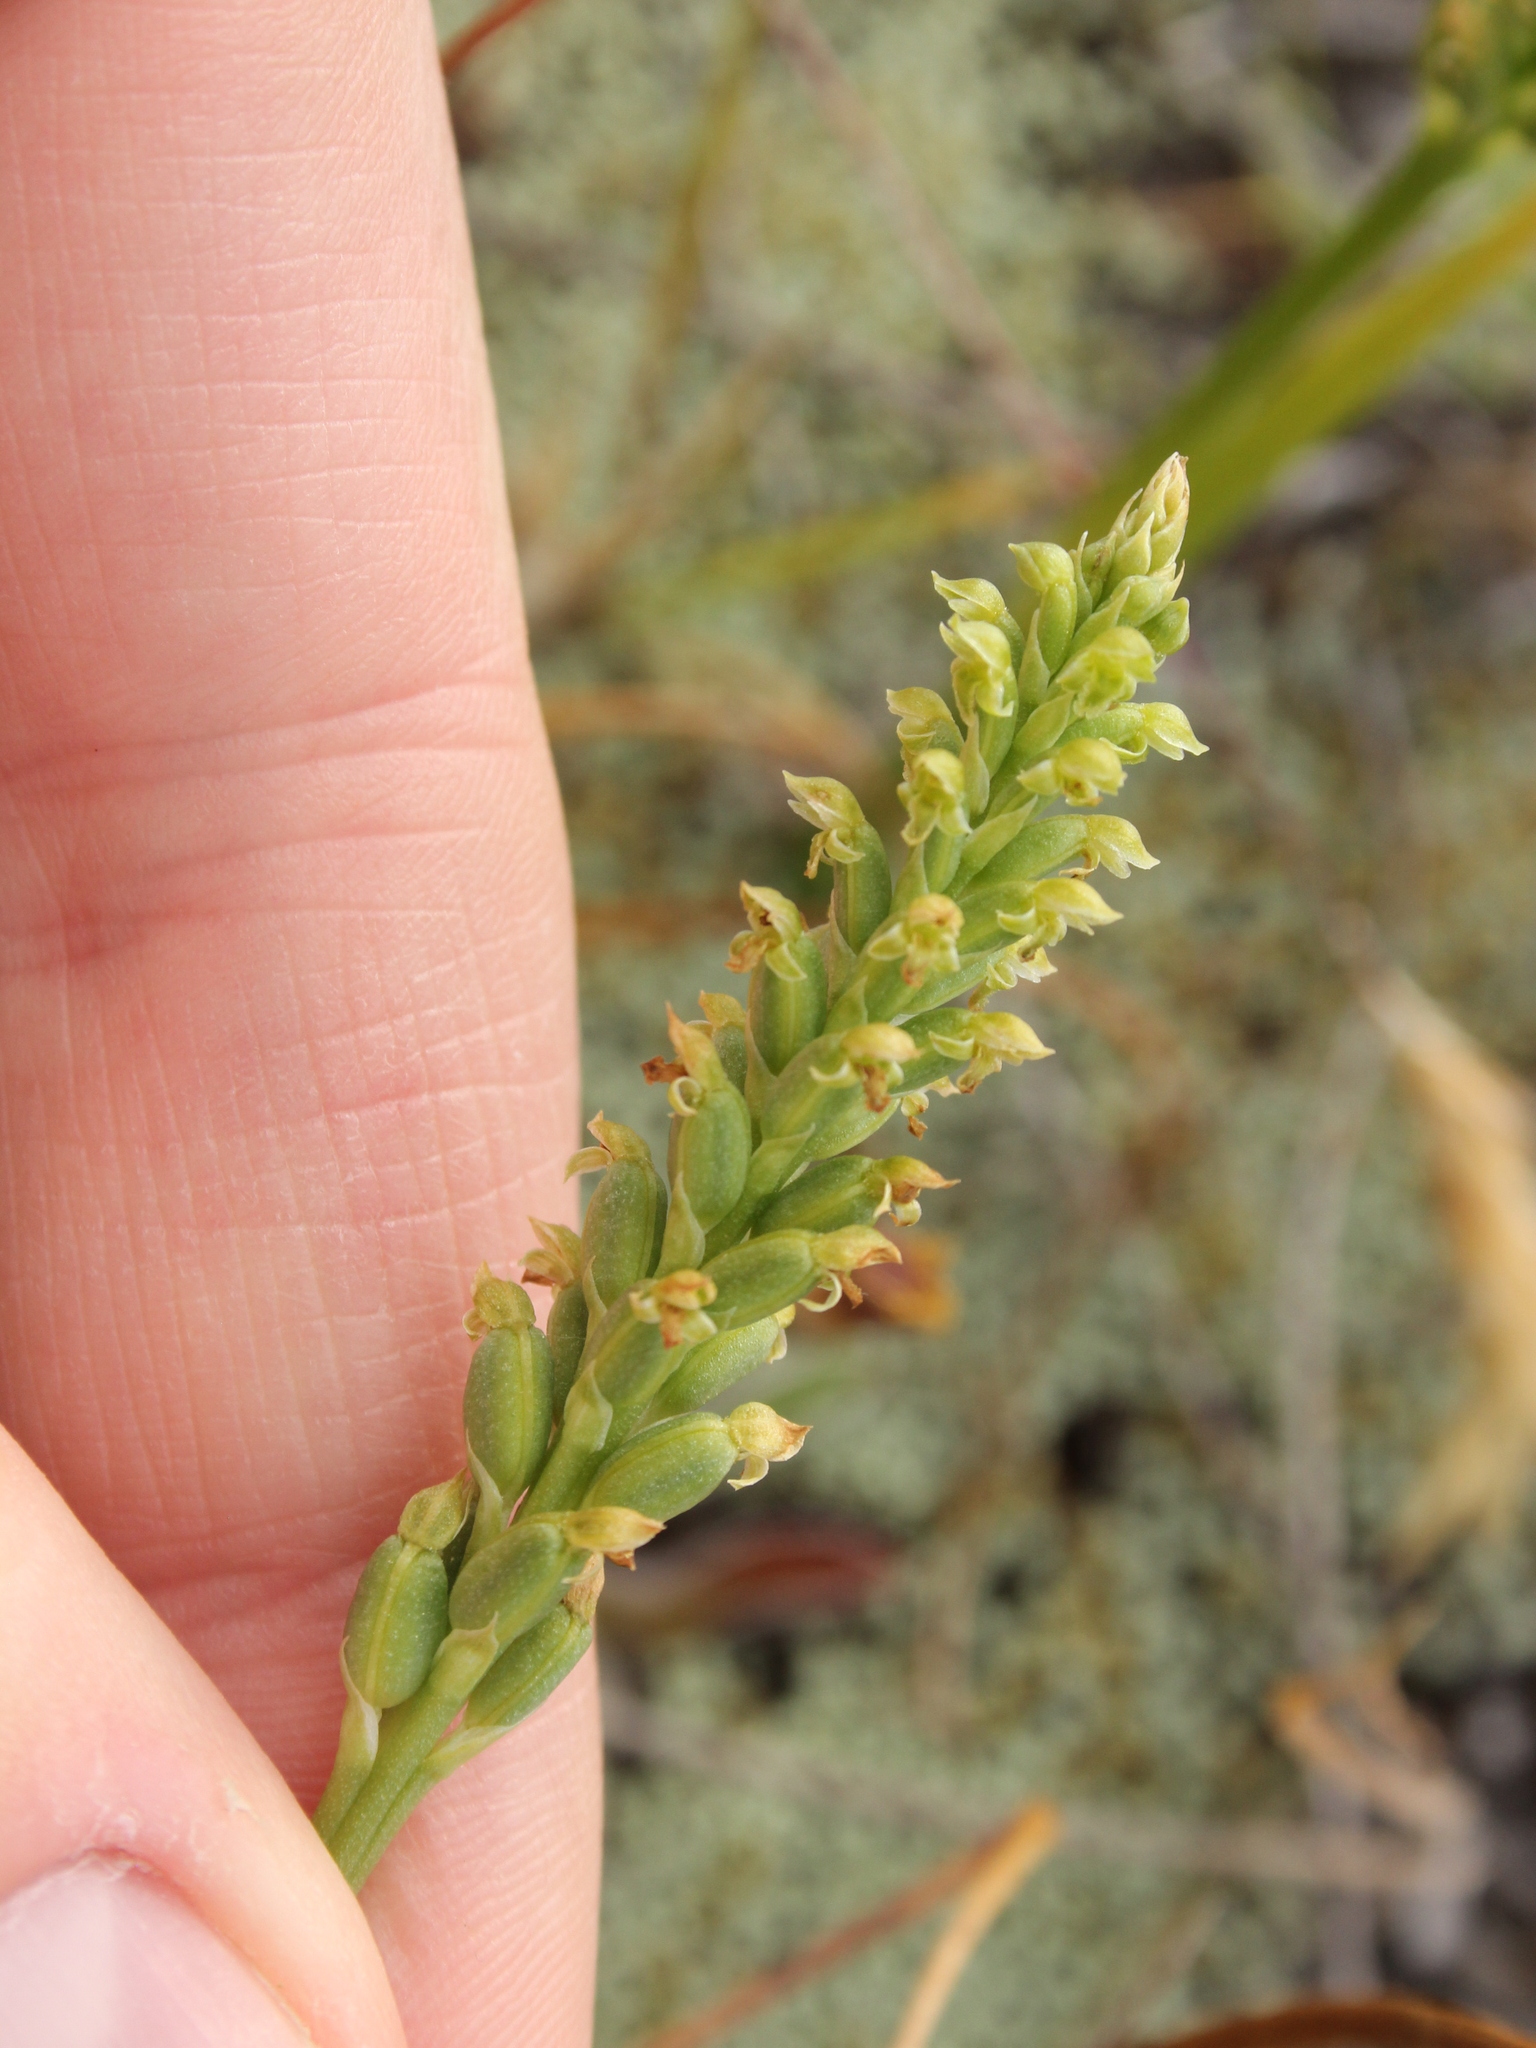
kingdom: Plantae
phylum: Tracheophyta
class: Liliopsida
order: Asparagales
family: Orchidaceae
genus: Microtis
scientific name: Microtis unifolia
